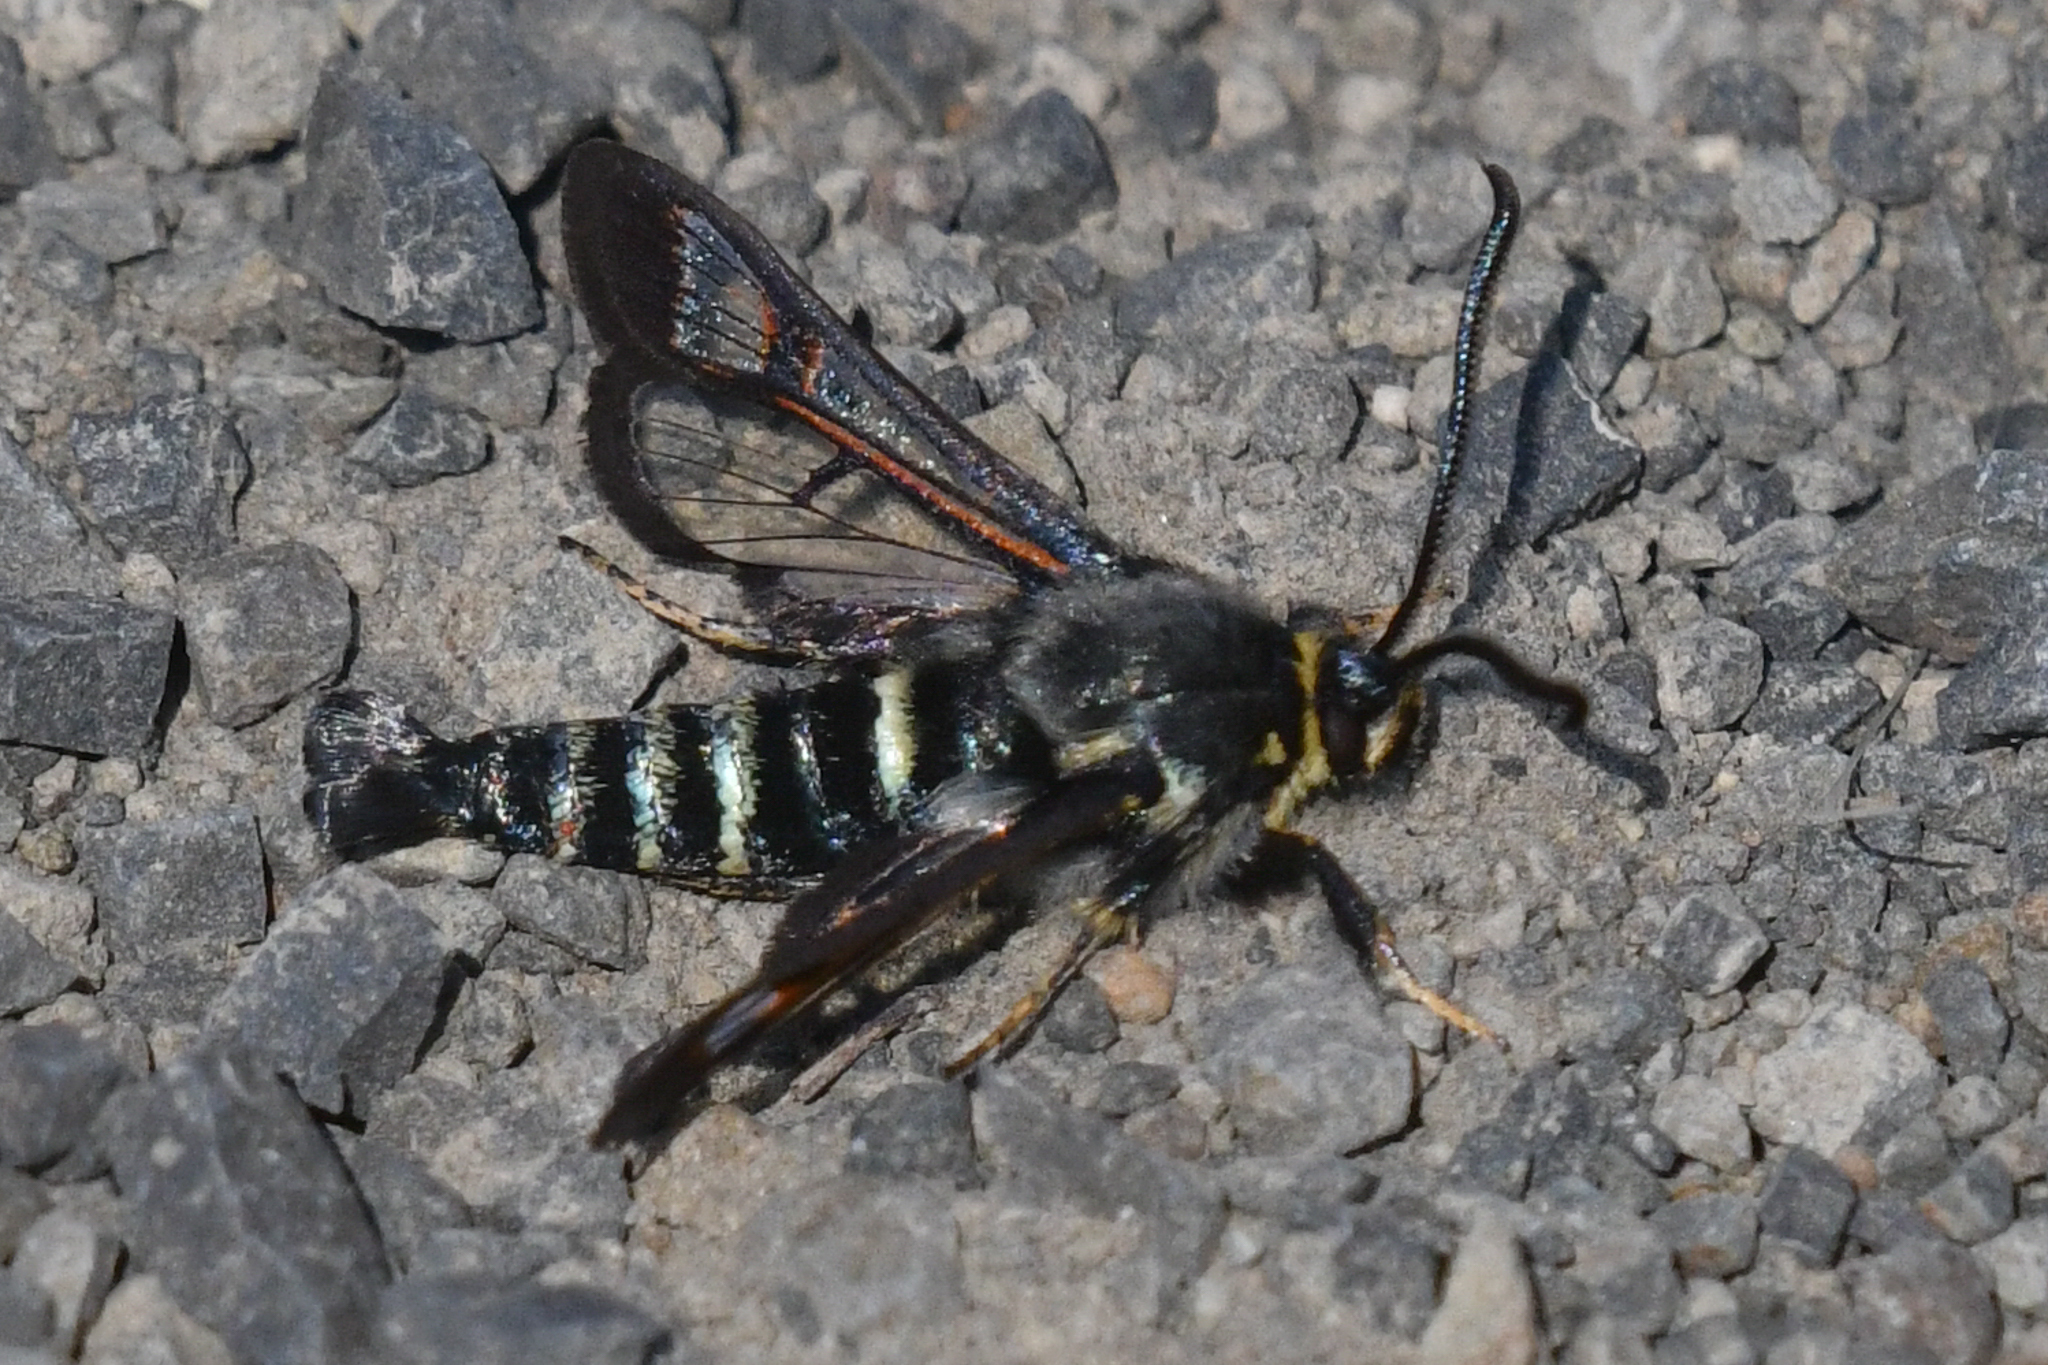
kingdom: Animalia
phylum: Arthropoda
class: Insecta
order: Lepidoptera
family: Sesiidae
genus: Albuna
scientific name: Albuna pyramidalis
